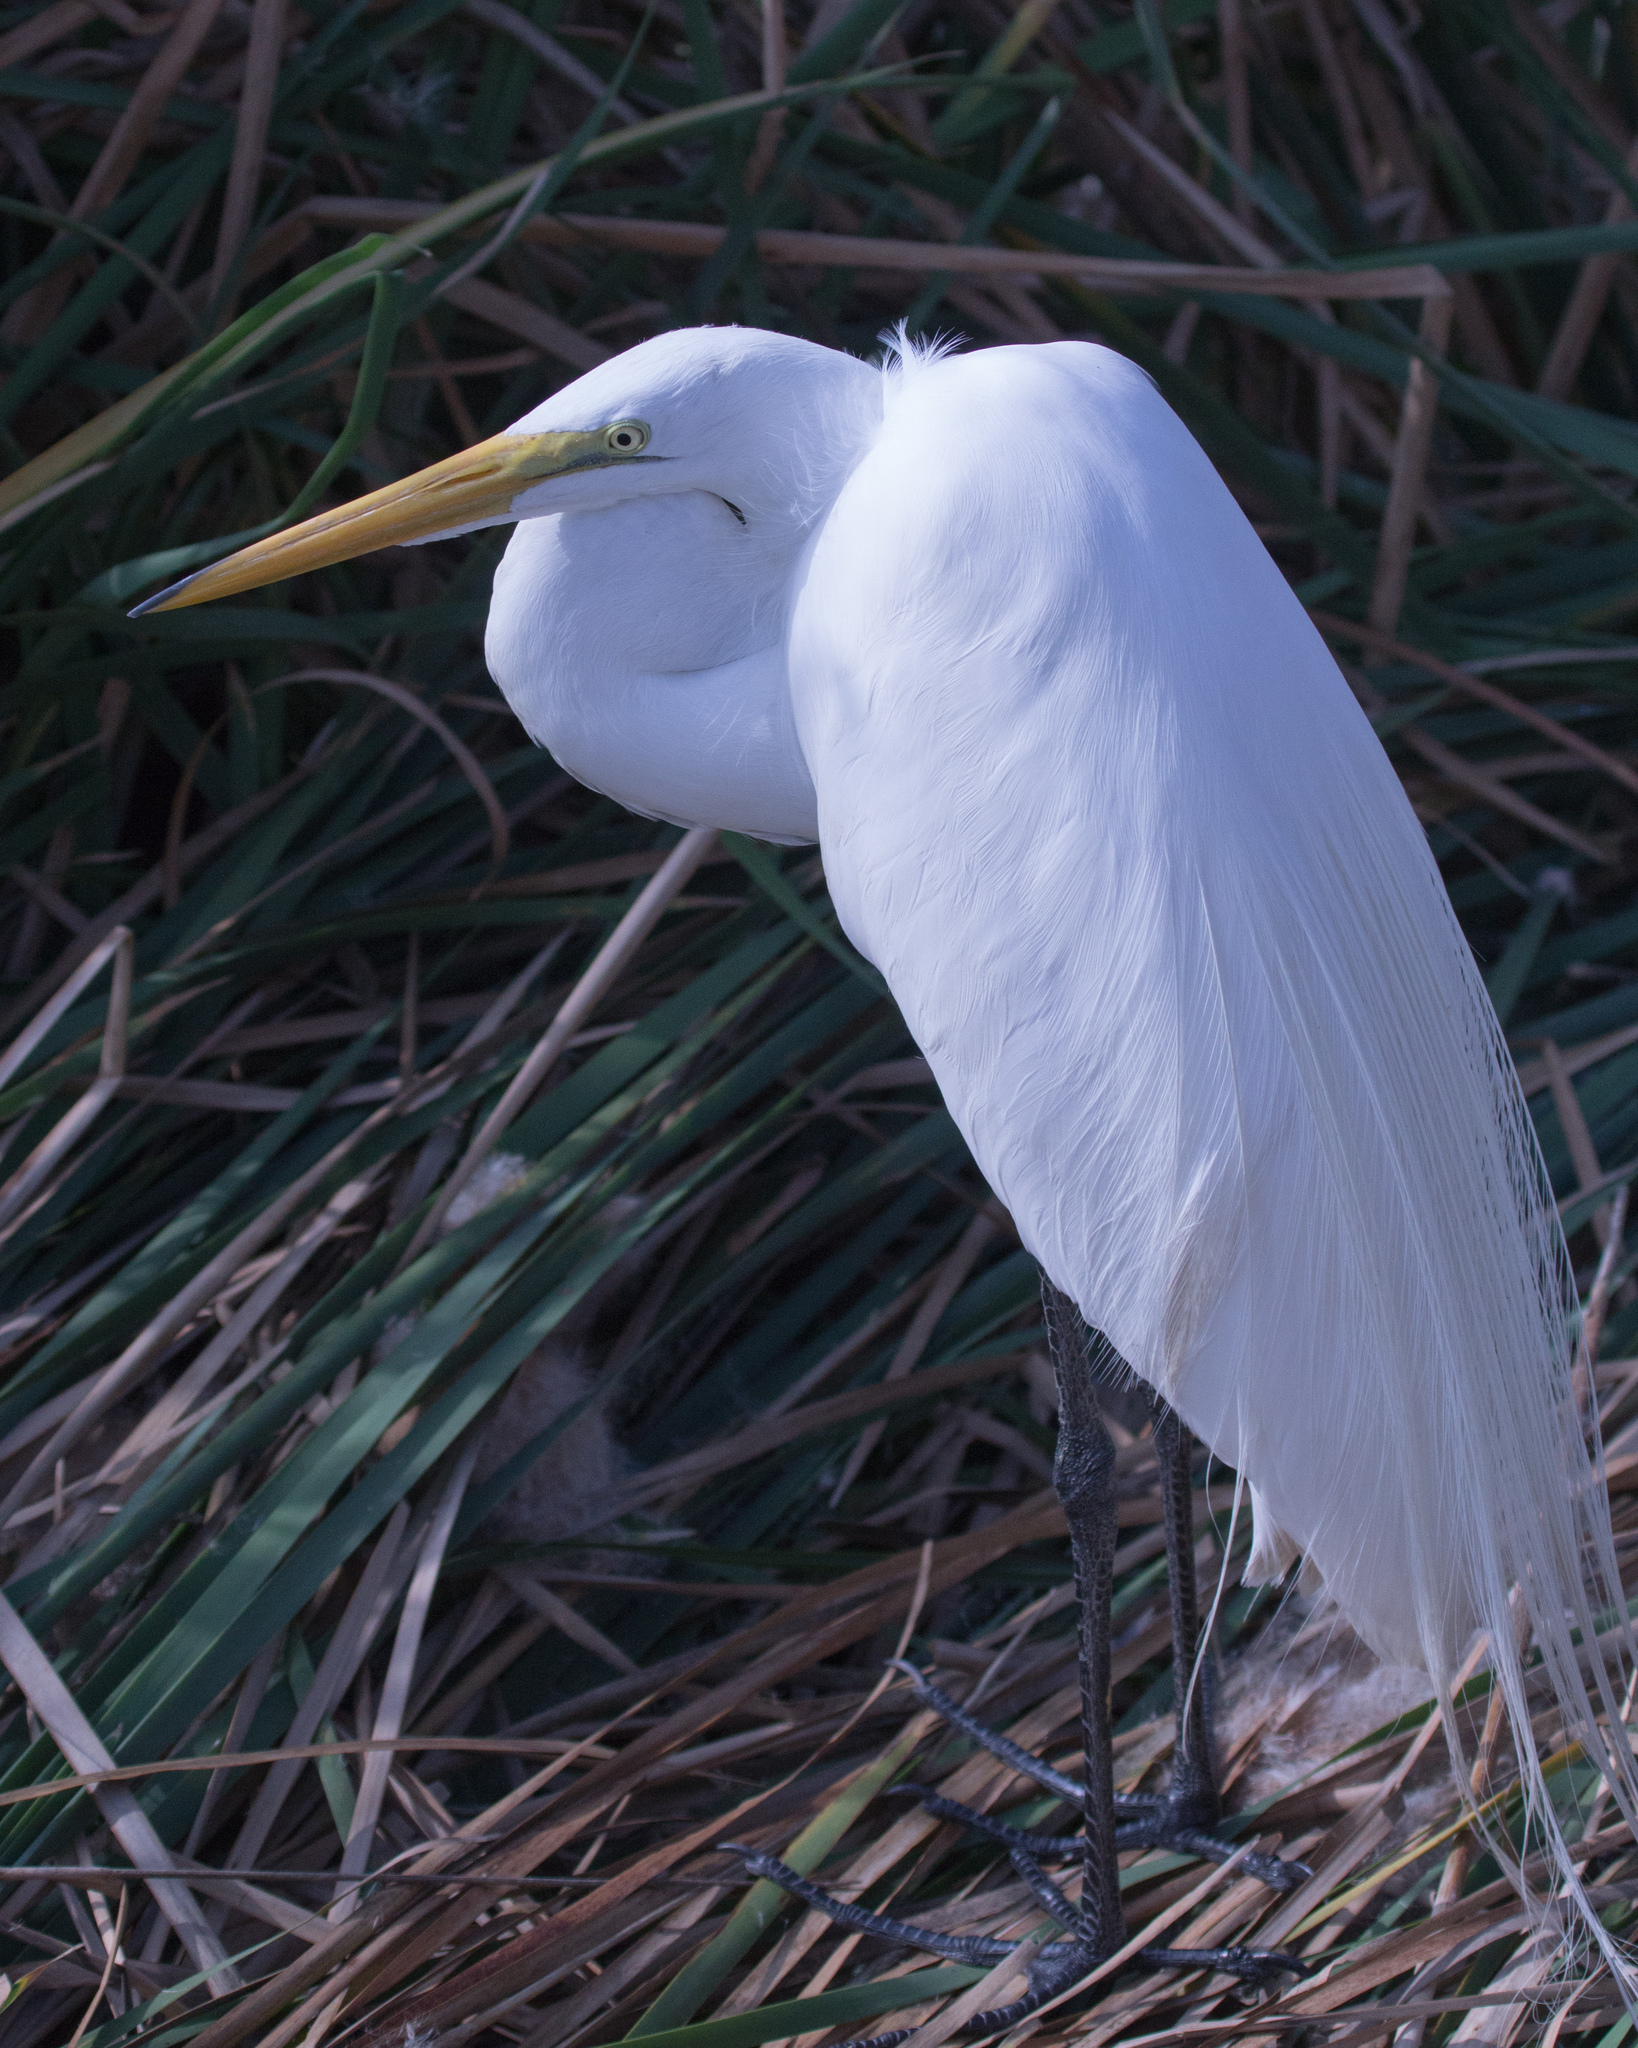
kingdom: Animalia
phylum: Chordata
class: Aves
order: Pelecaniformes
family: Ardeidae
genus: Ardea
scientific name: Ardea alba
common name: Great egret
